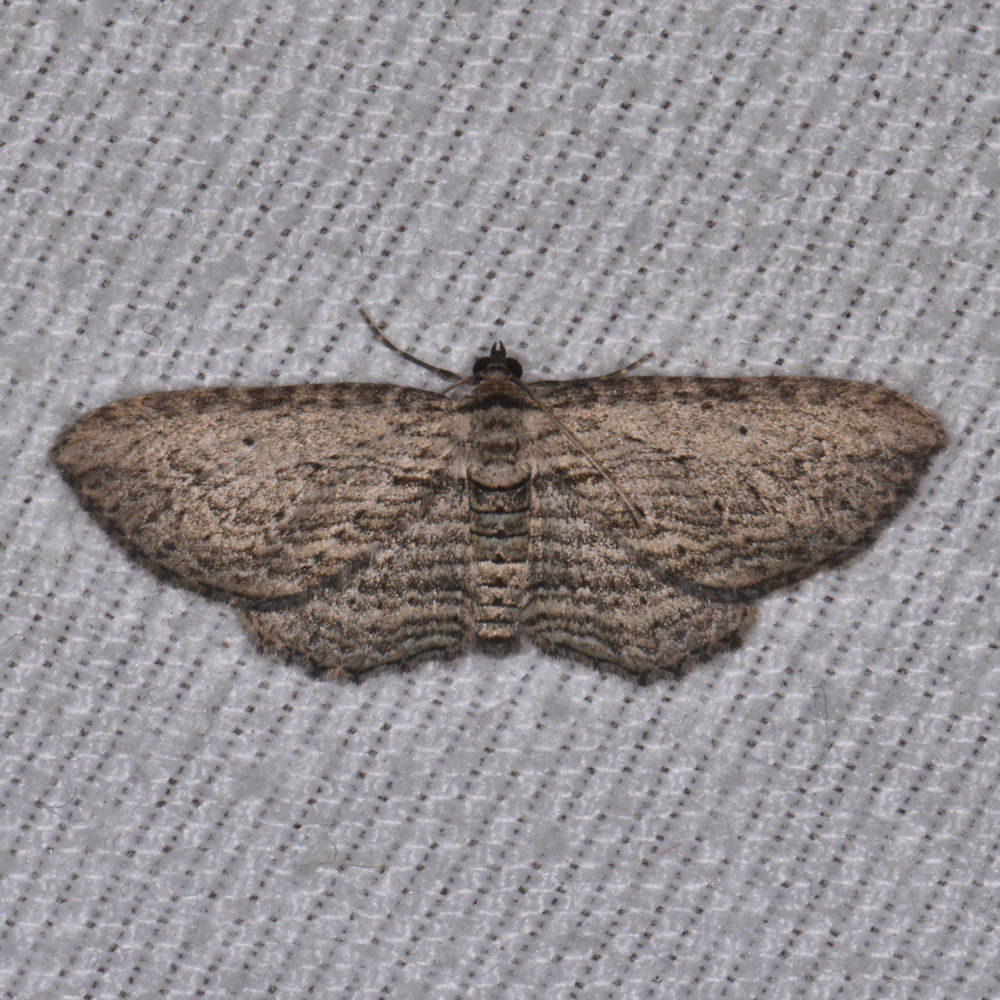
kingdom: Animalia
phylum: Arthropoda
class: Insecta
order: Lepidoptera
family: Geometridae
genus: Horisme
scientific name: Horisme intestinata
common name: Brown bark carpet
